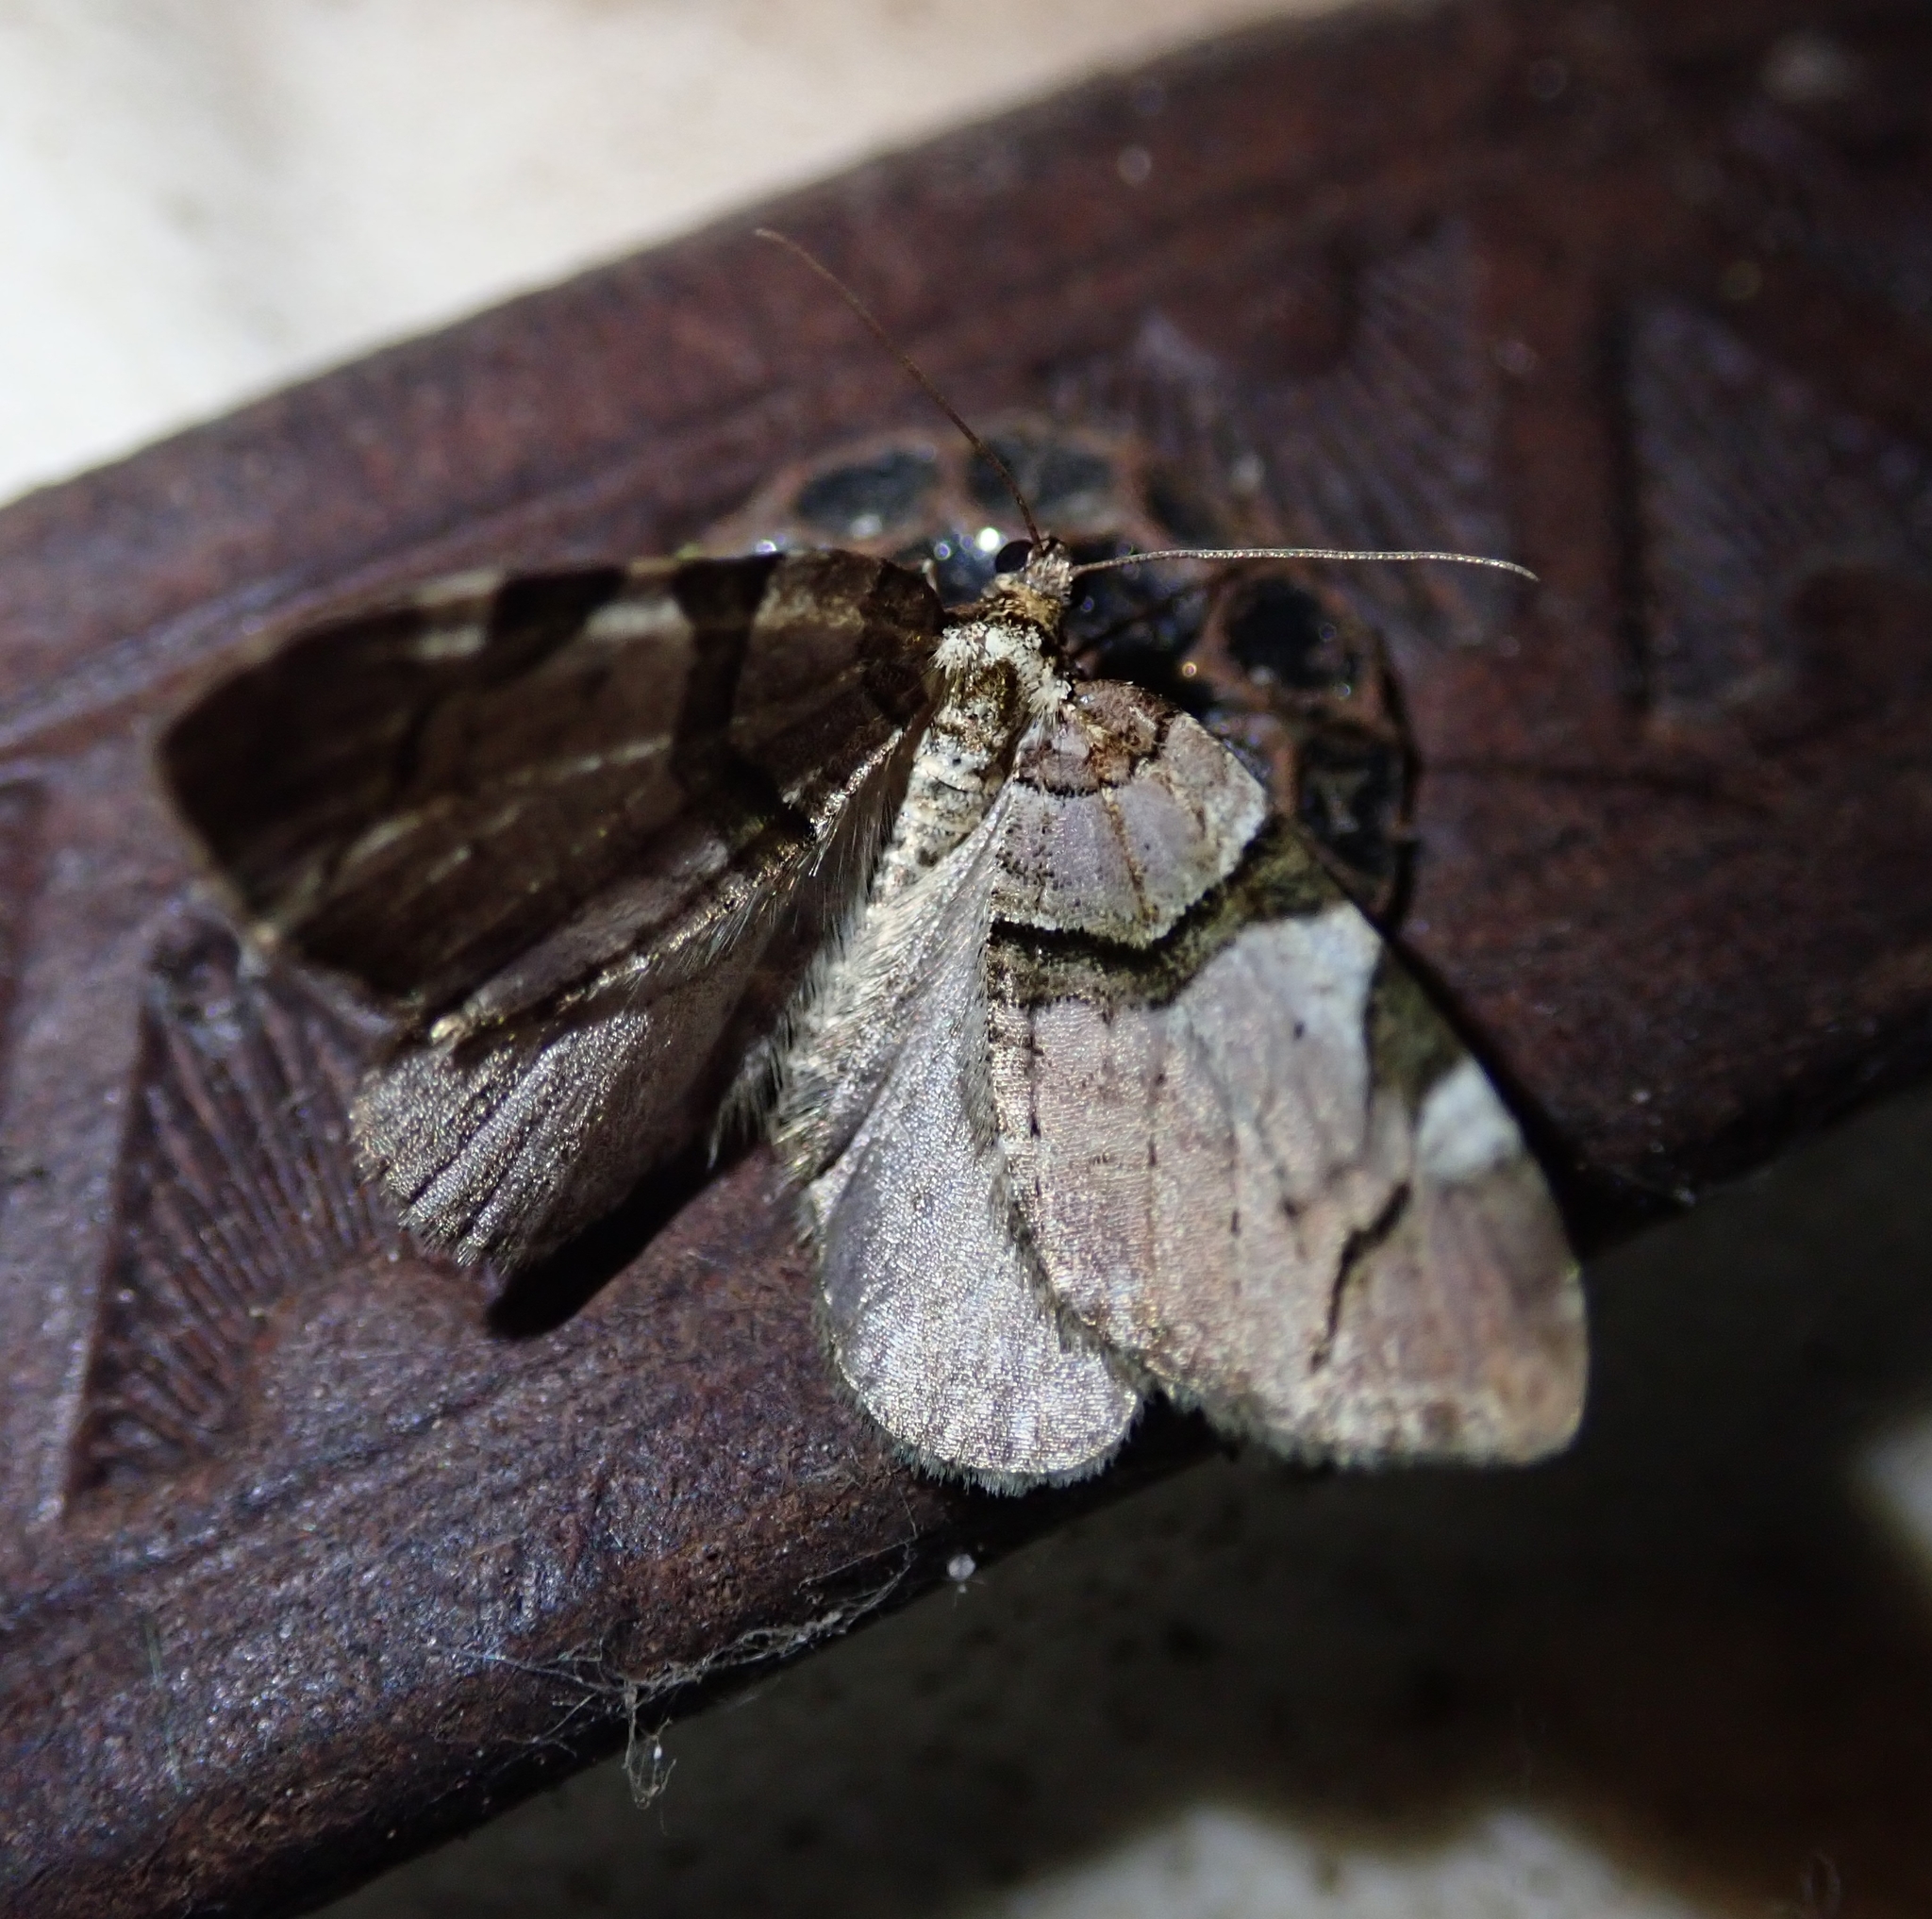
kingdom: Animalia
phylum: Arthropoda
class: Insecta
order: Lepidoptera
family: Geometridae
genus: Anticlea
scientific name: Anticlea derivata
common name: Streamer
